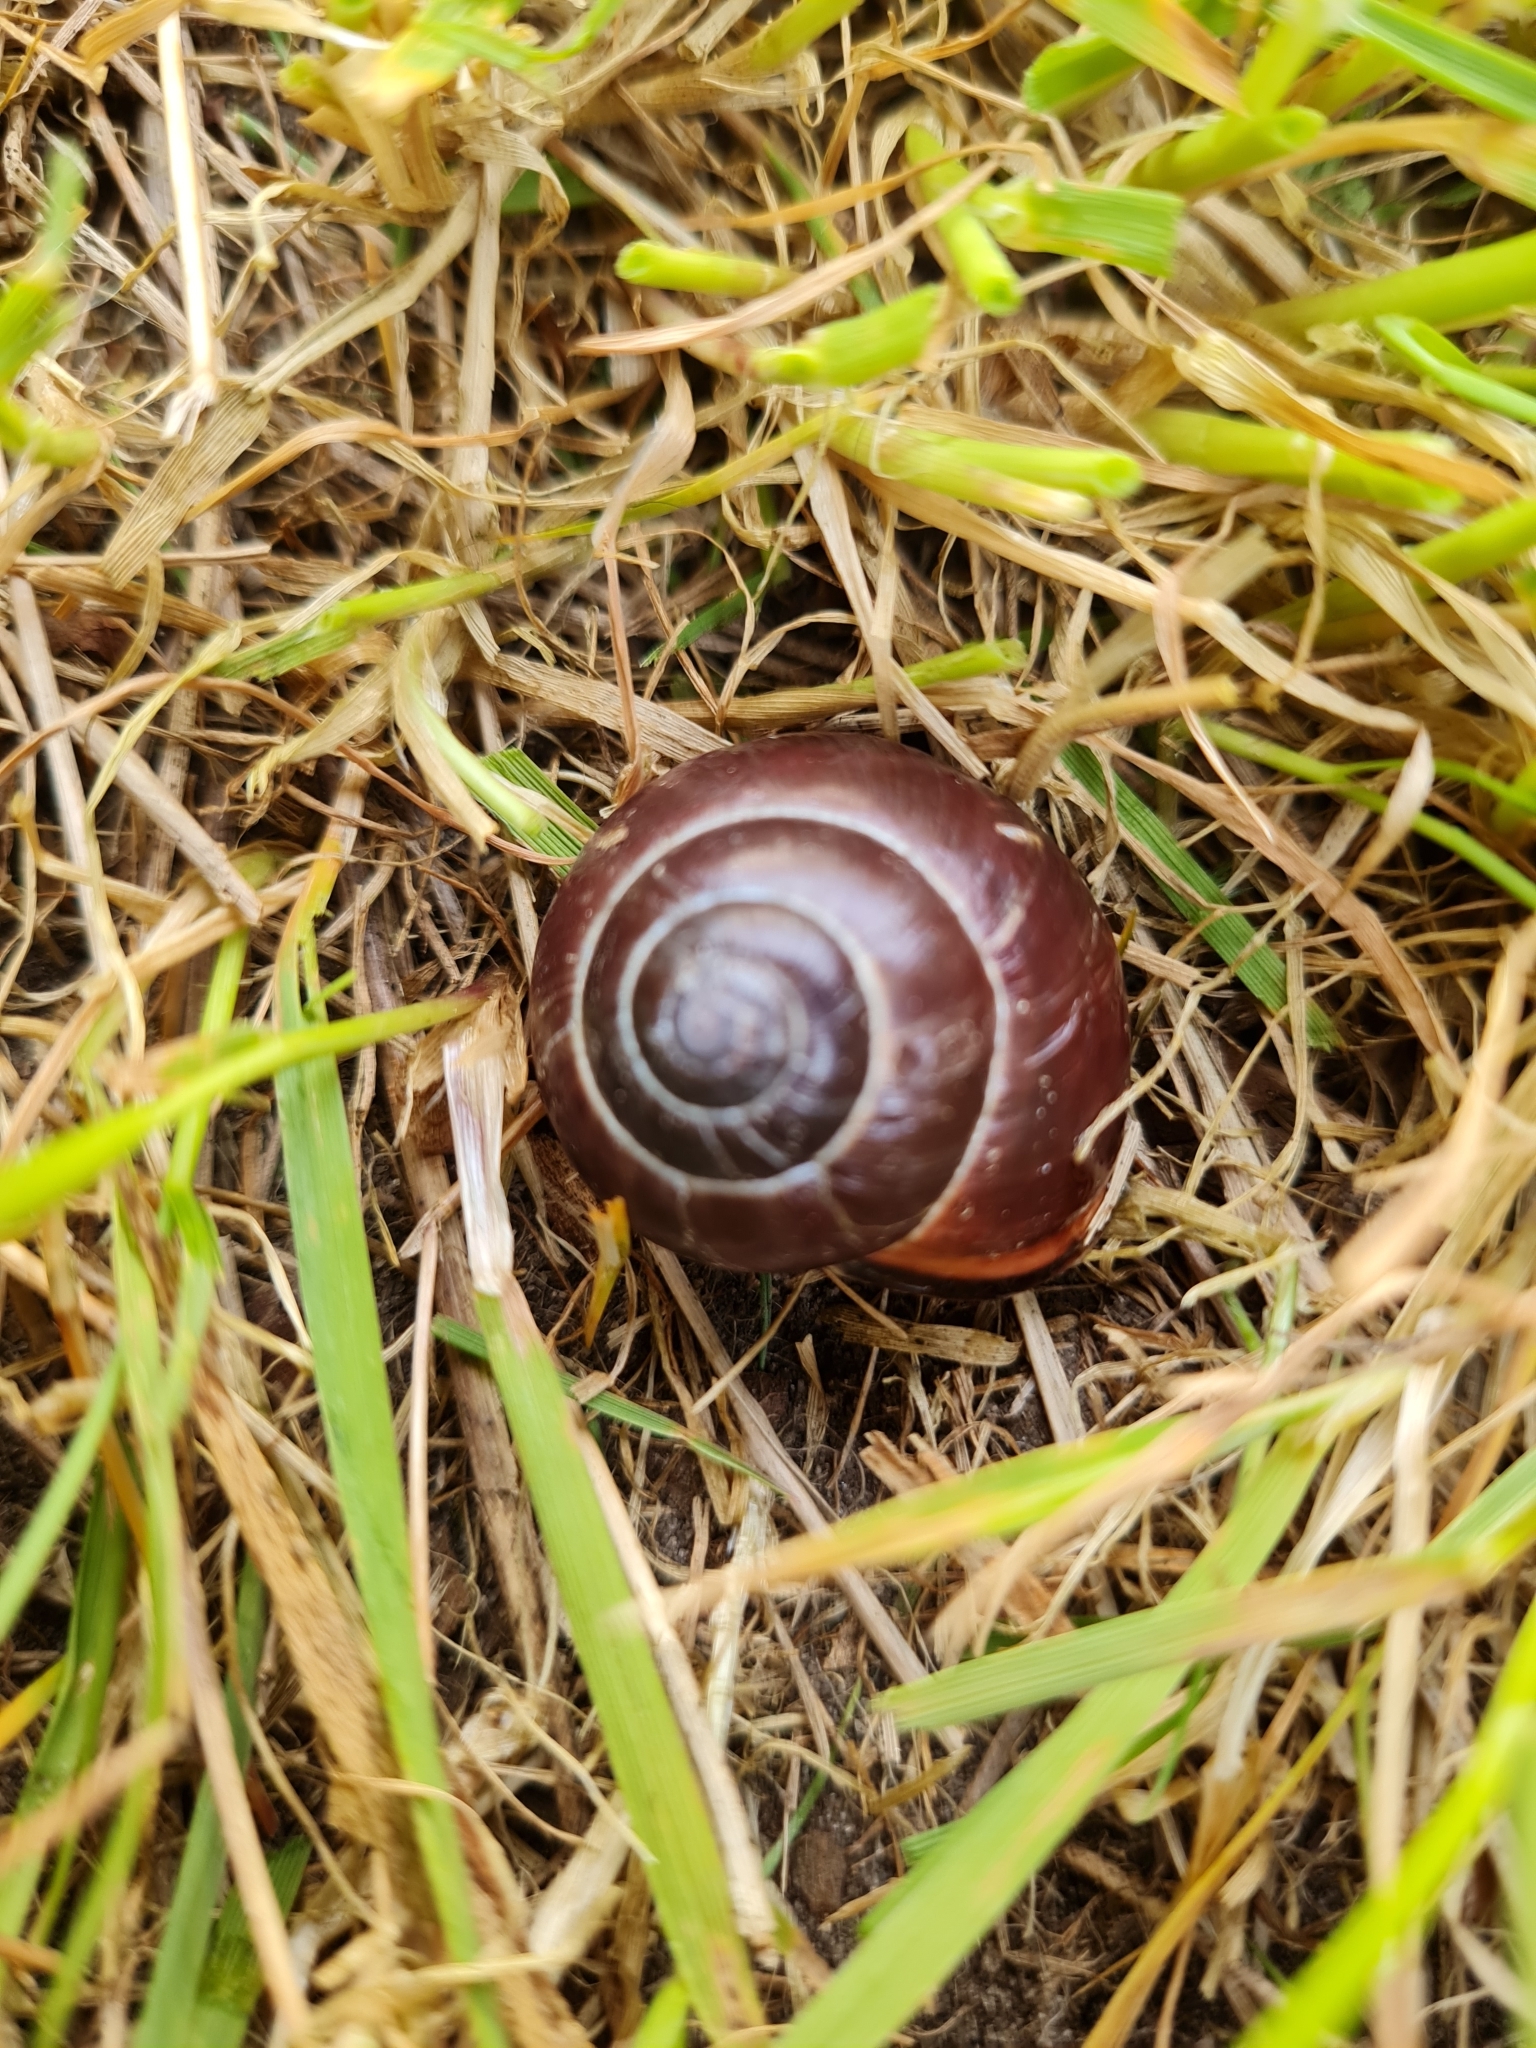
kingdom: Animalia
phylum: Mollusca
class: Gastropoda
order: Stylommatophora
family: Helicidae
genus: Cepaea
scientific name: Cepaea nemoralis
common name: Grovesnail
